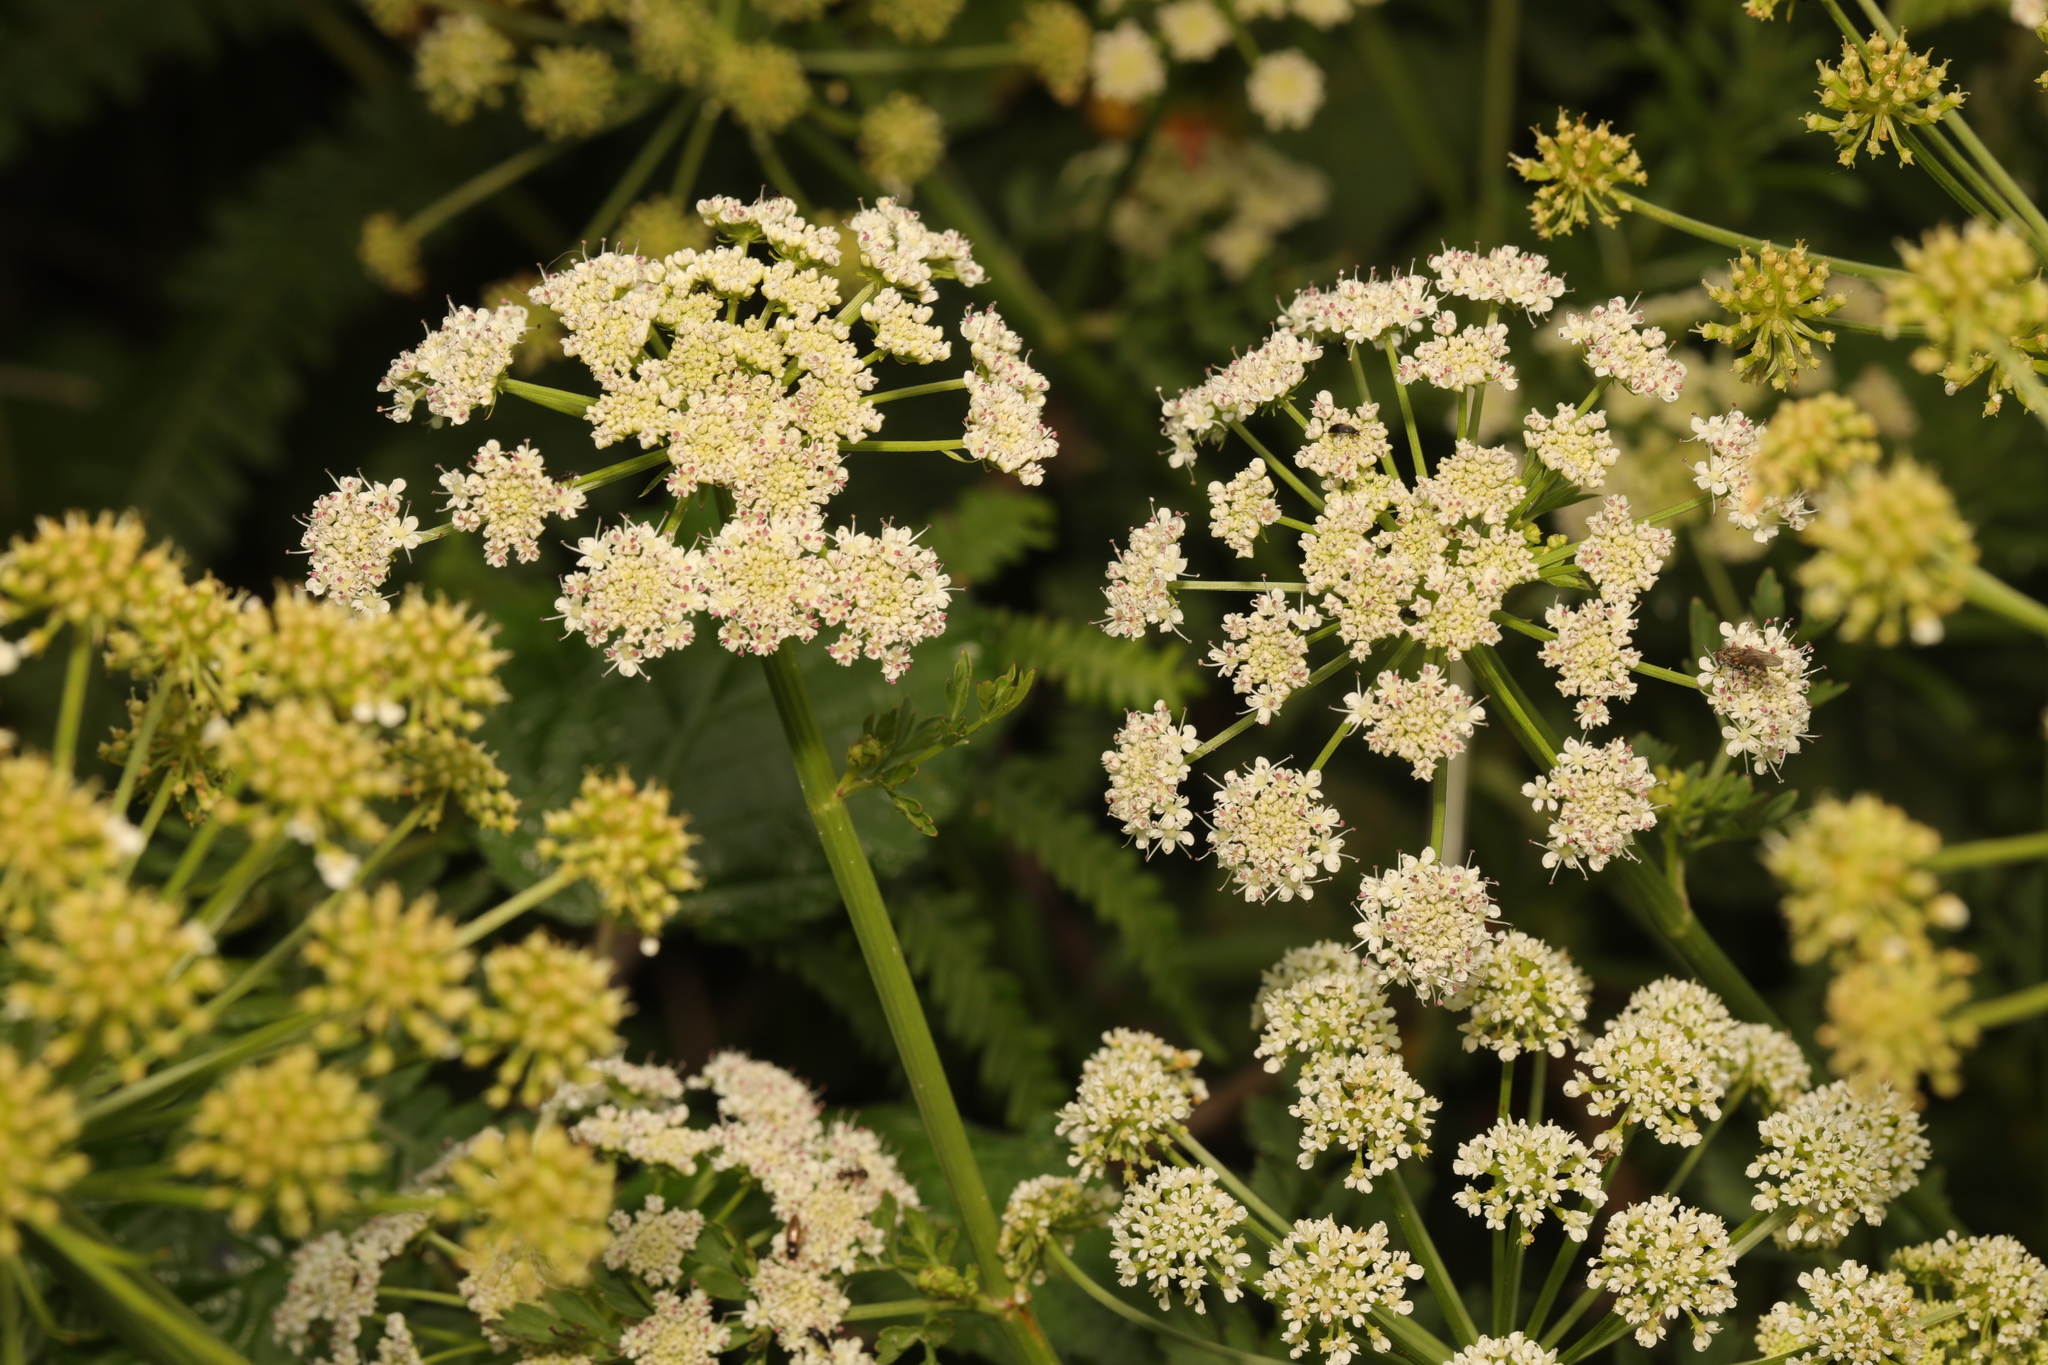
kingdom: Plantae
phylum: Tracheophyta
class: Magnoliopsida
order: Apiales
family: Apiaceae
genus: Oenanthe
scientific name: Oenanthe crocata
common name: Hemlock water-dropwort
